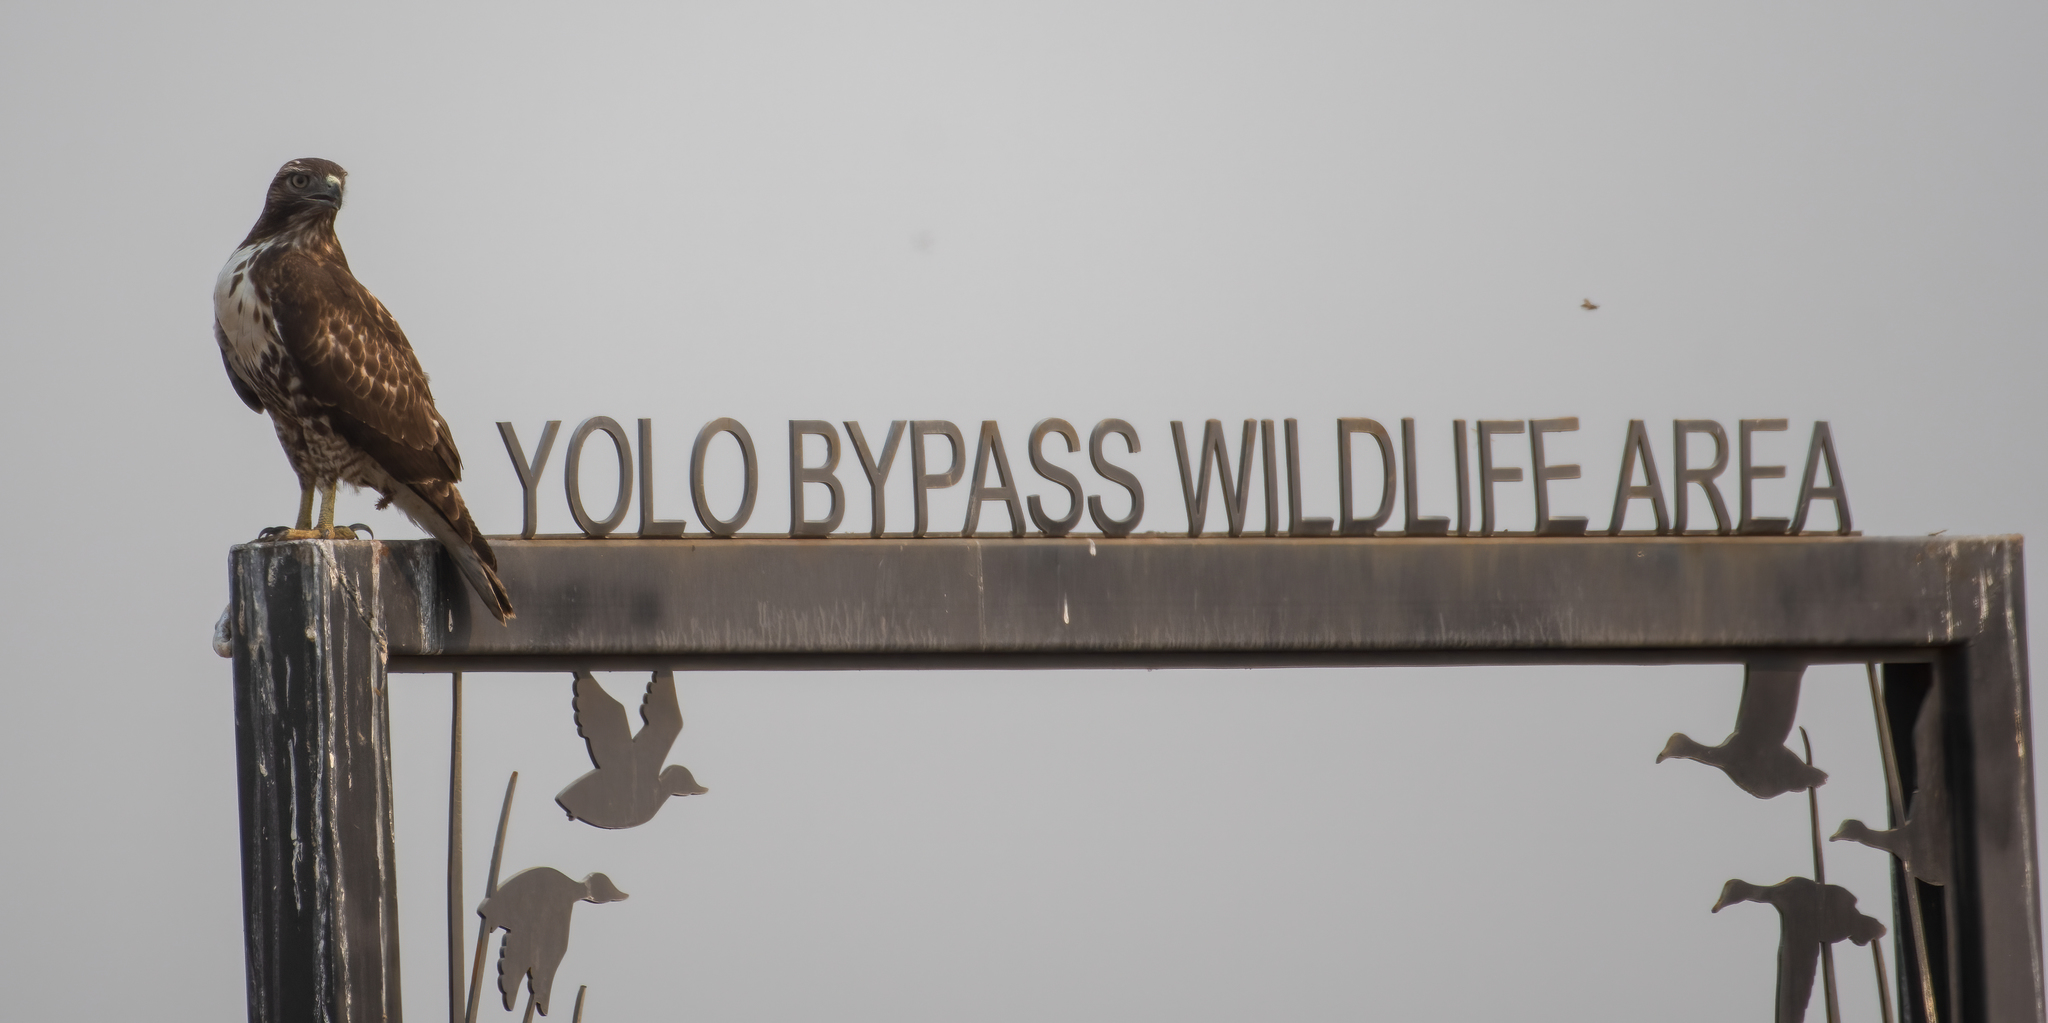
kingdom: Animalia
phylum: Chordata
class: Aves
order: Accipitriformes
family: Accipitridae
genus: Buteo
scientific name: Buteo jamaicensis
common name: Red-tailed hawk
